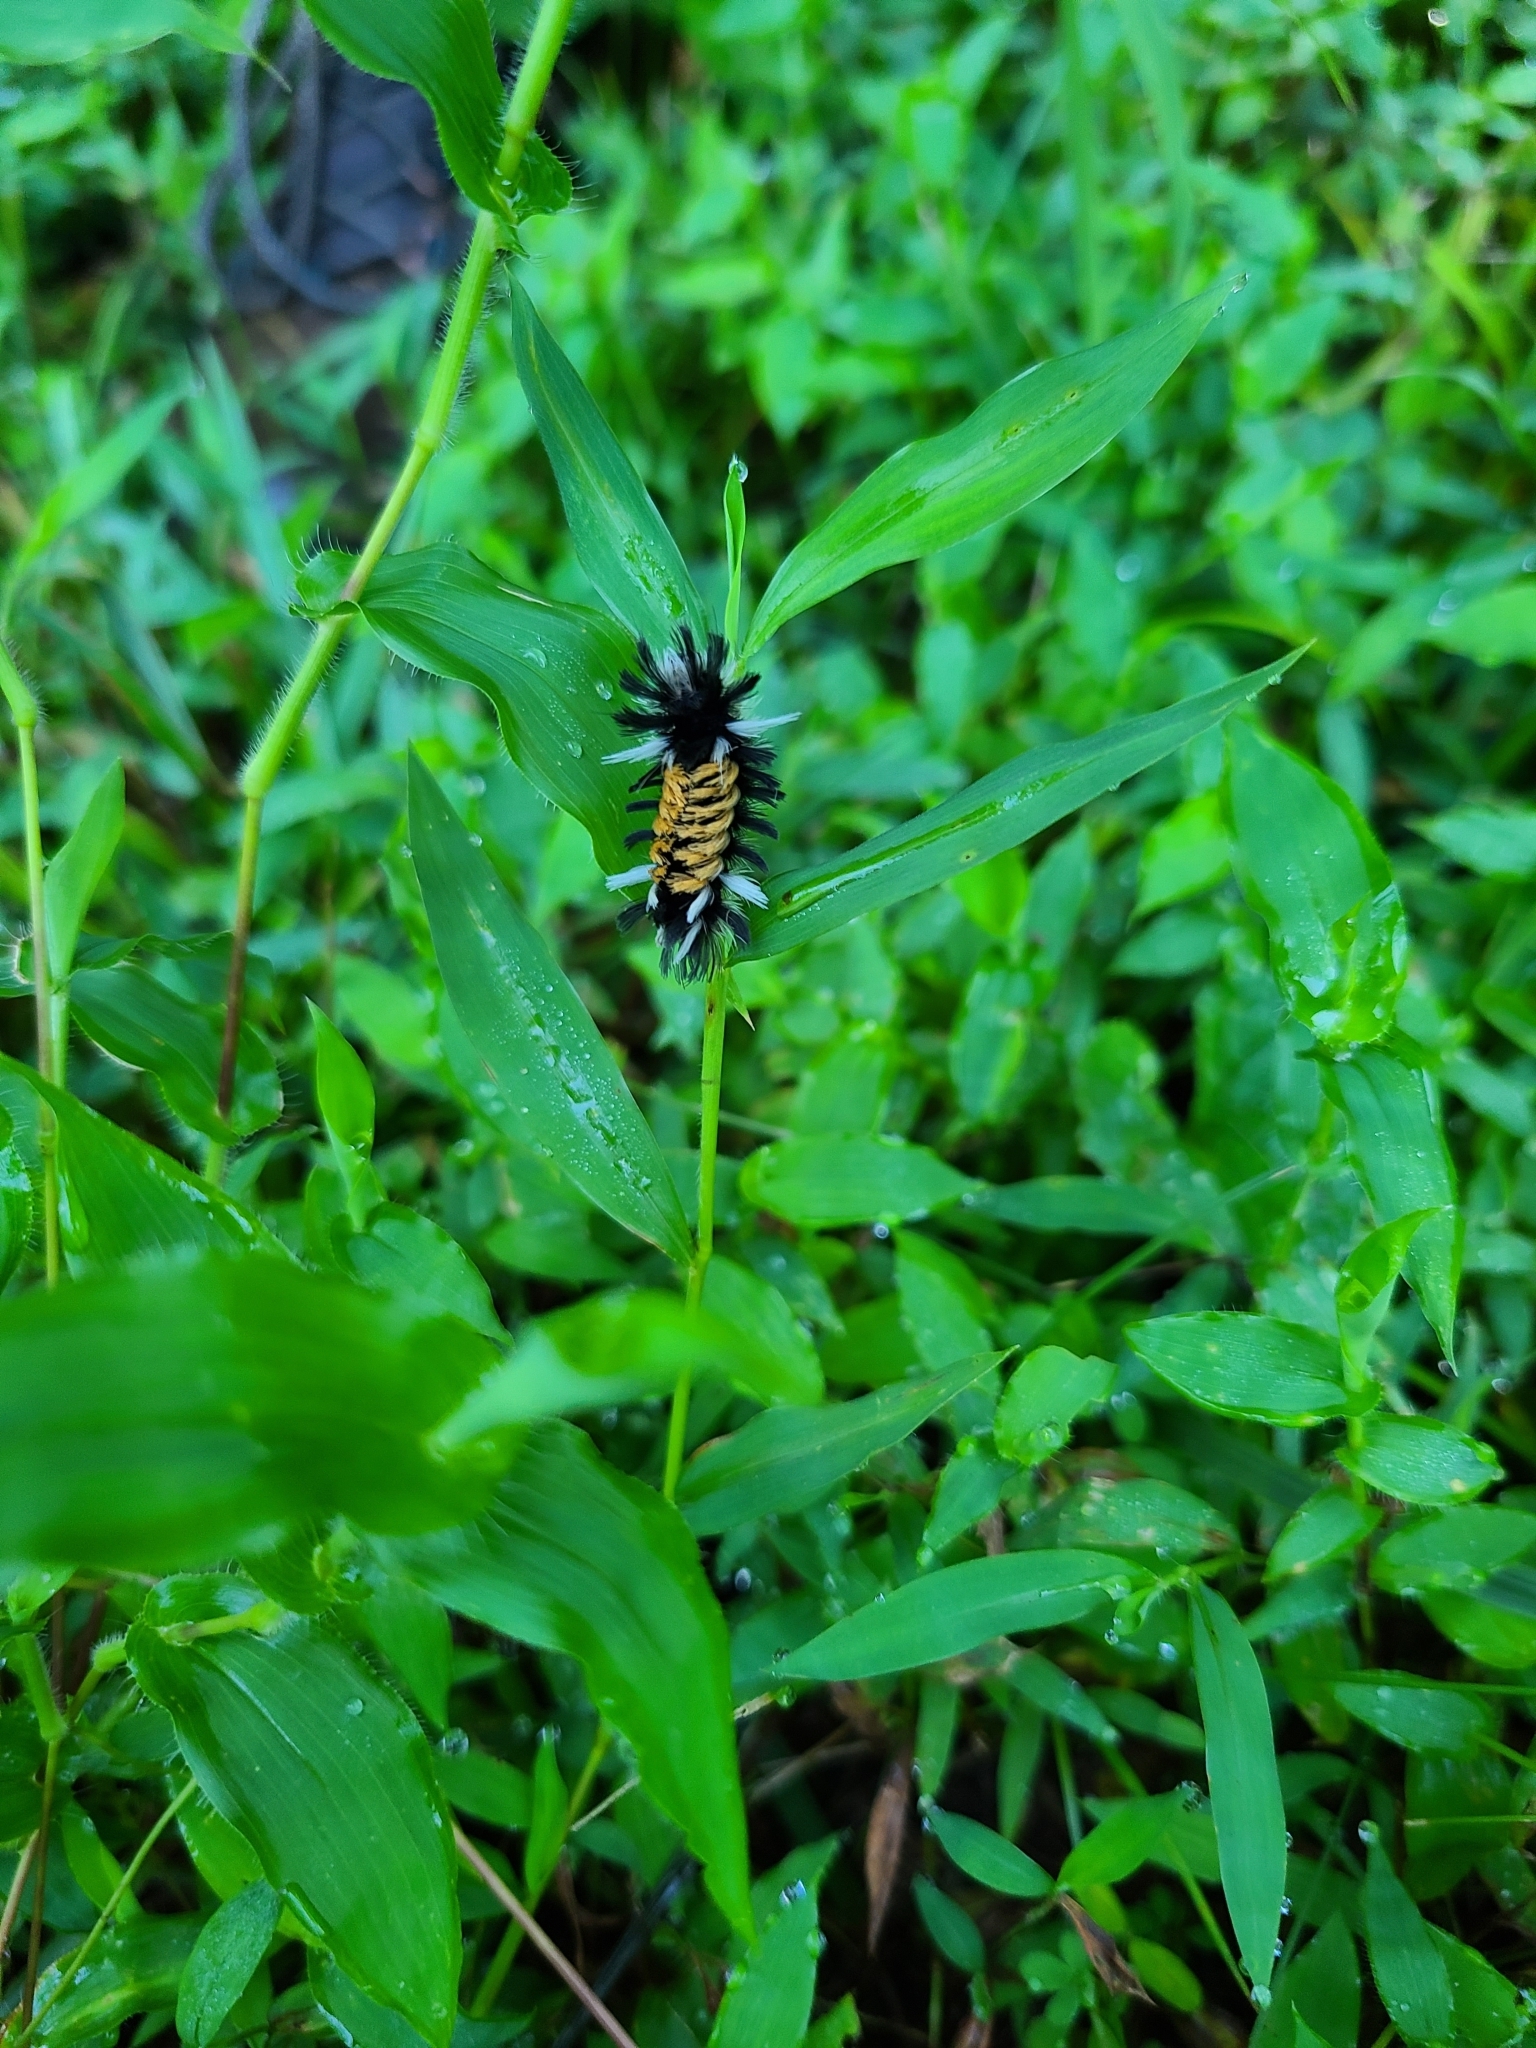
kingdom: Animalia
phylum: Arthropoda
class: Insecta
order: Lepidoptera
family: Erebidae
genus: Euchaetes
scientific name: Euchaetes egle
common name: Milkweed tussock moth
